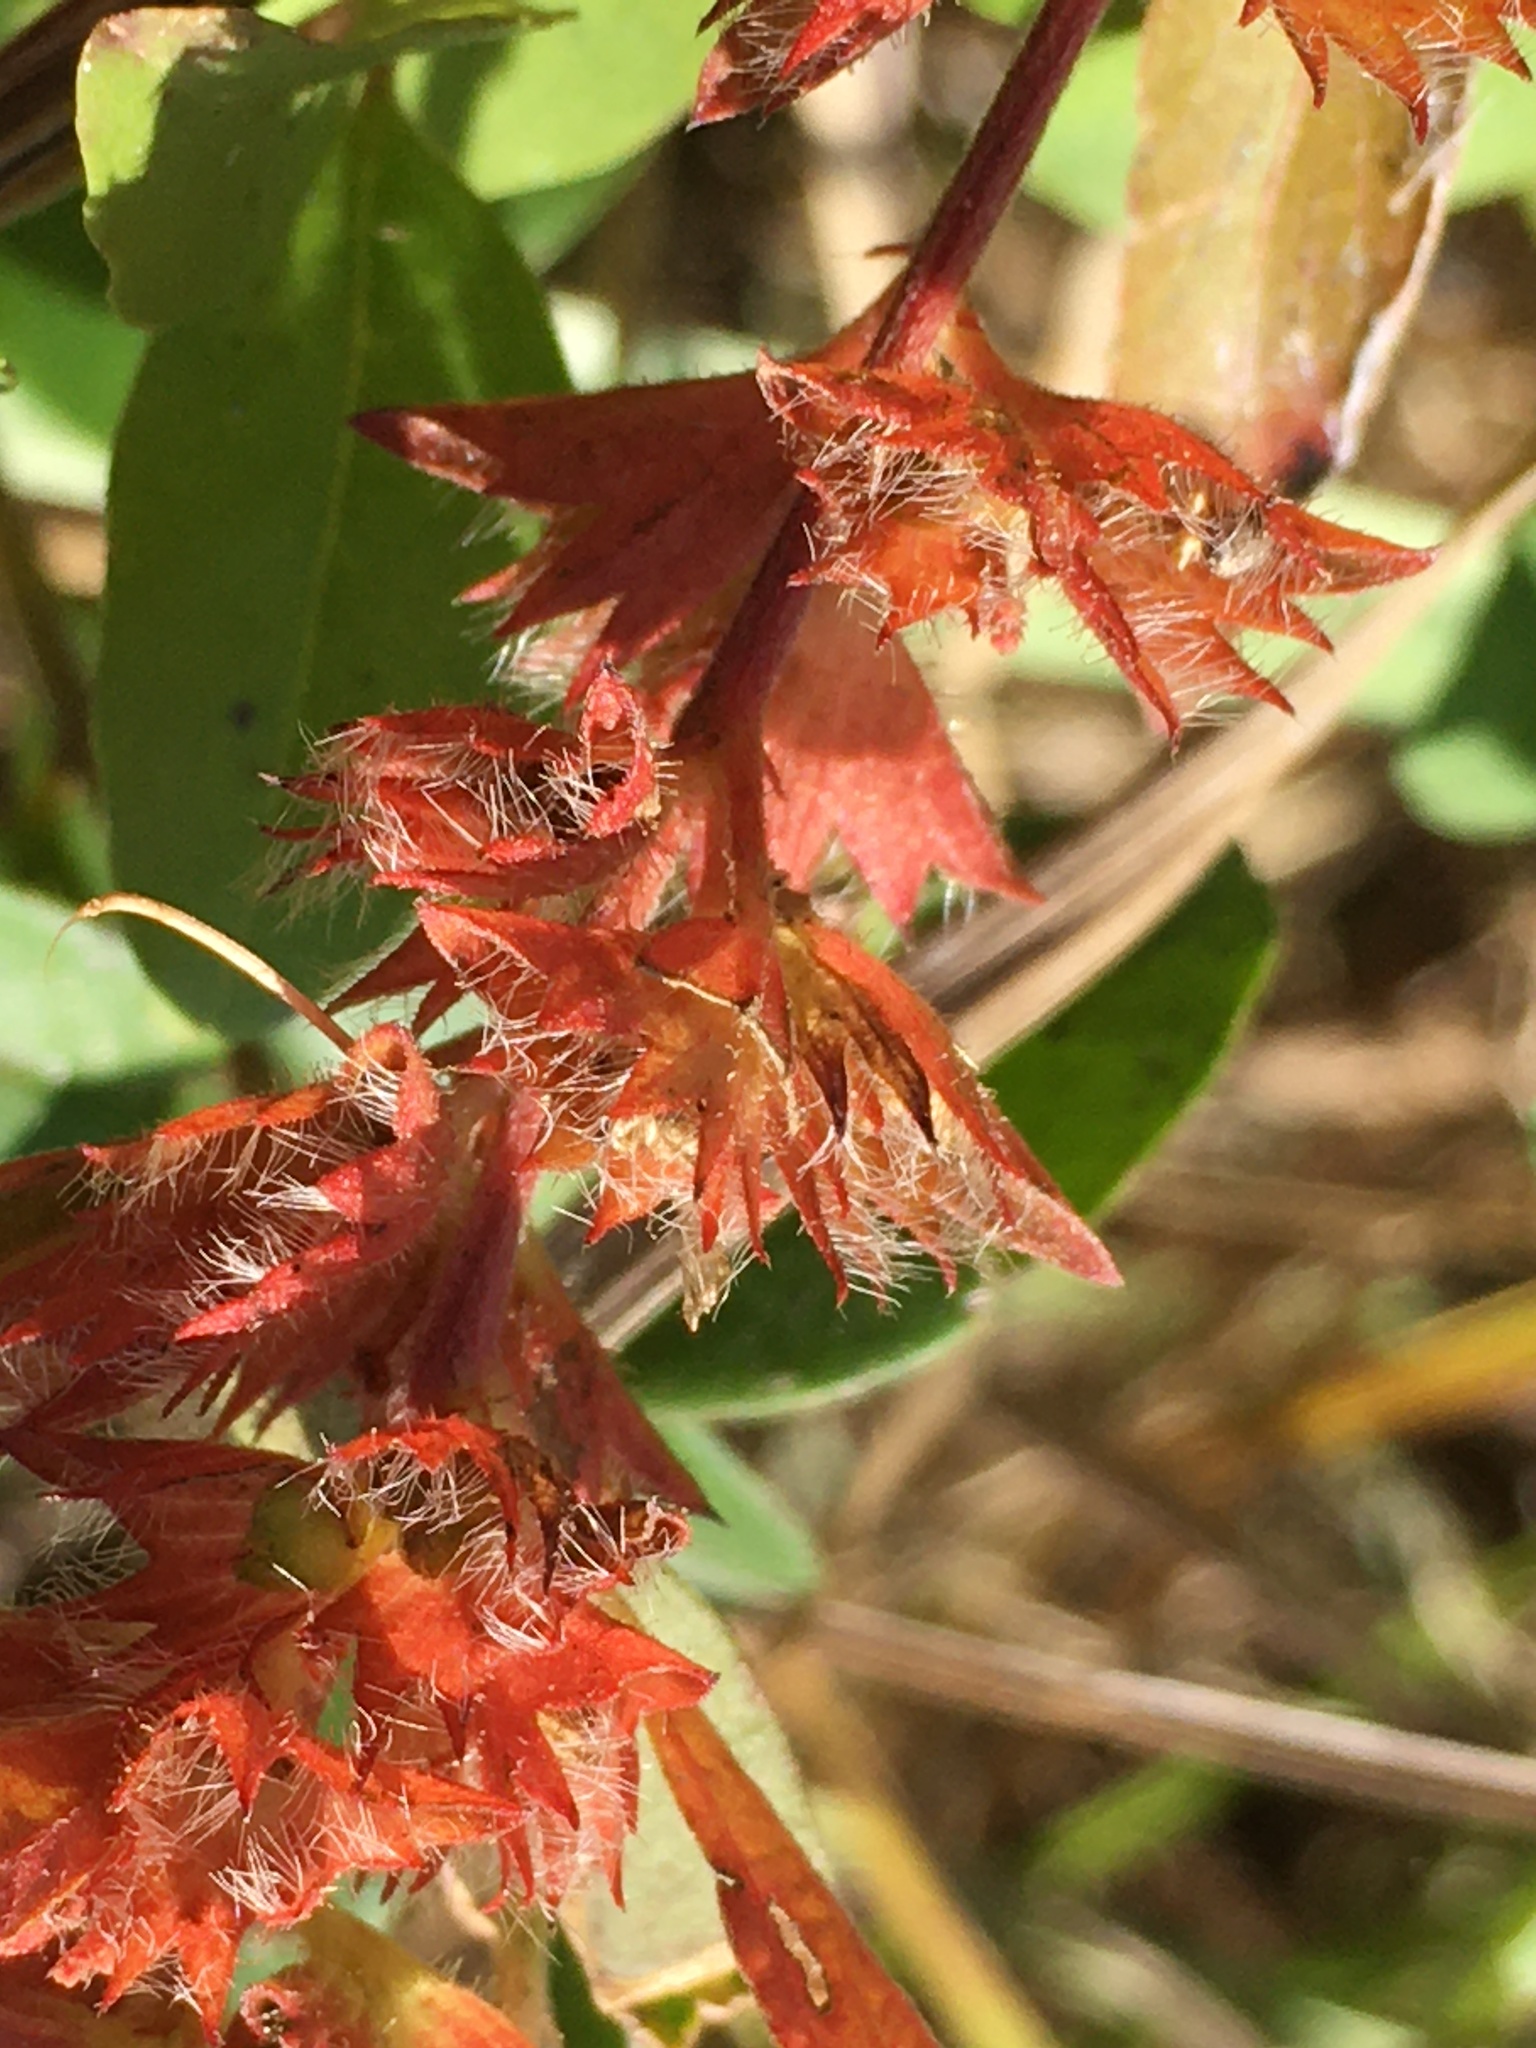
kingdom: Plantae
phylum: Tracheophyta
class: Magnoliopsida
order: Malpighiales
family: Euphorbiaceae
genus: Acalypha
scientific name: Acalypha gracilens
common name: Slender three-seeded mercury
